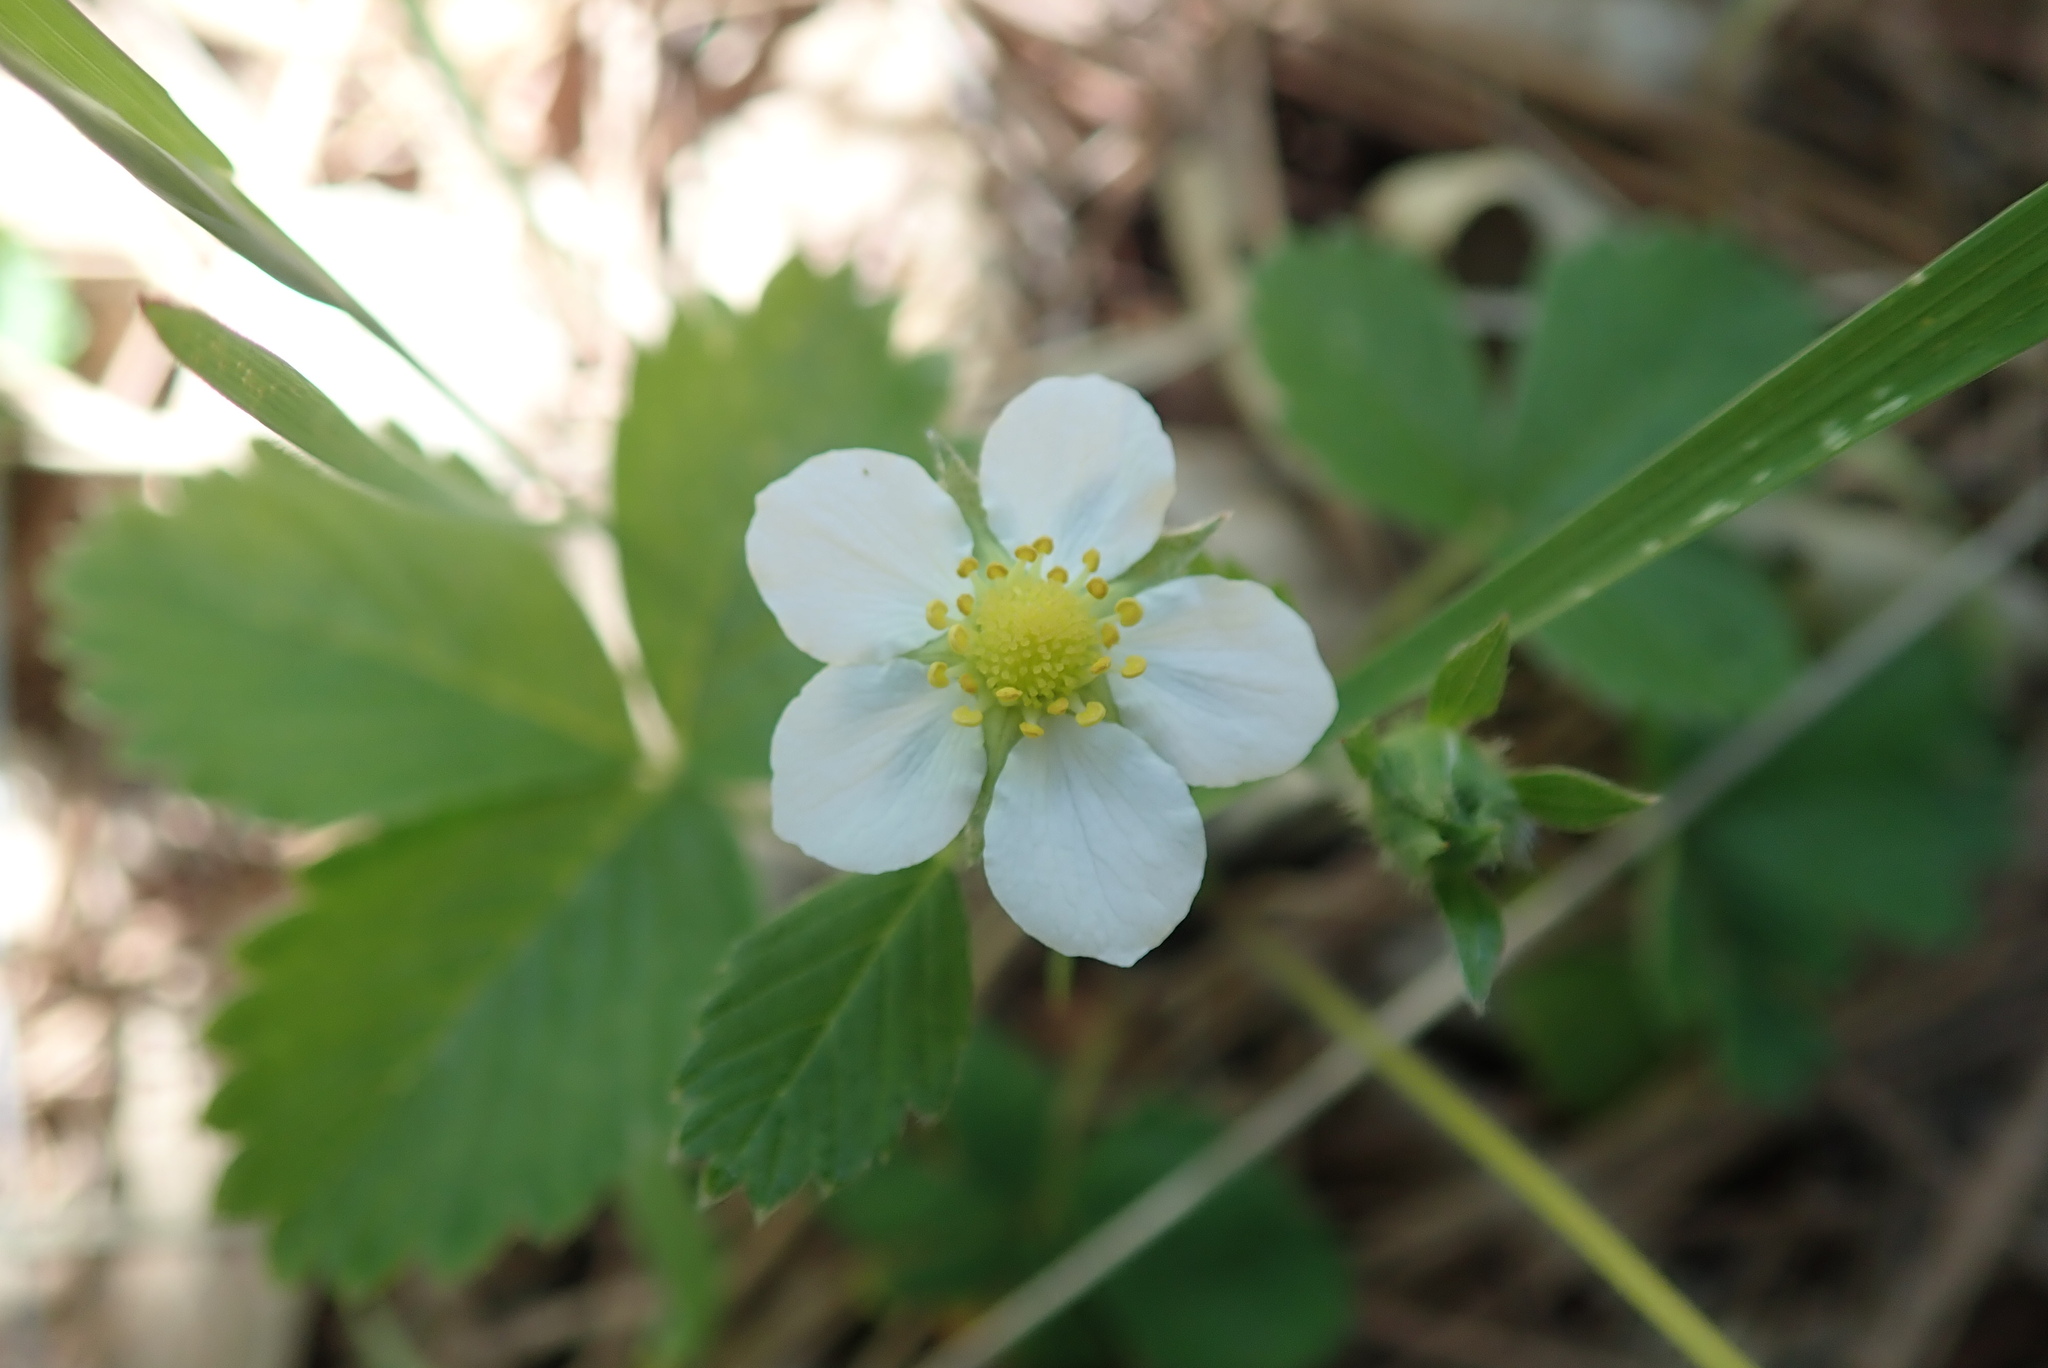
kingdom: Plantae
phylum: Tracheophyta
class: Magnoliopsida
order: Rosales
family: Rosaceae
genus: Fragaria
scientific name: Fragaria vesca
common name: Wild strawberry
